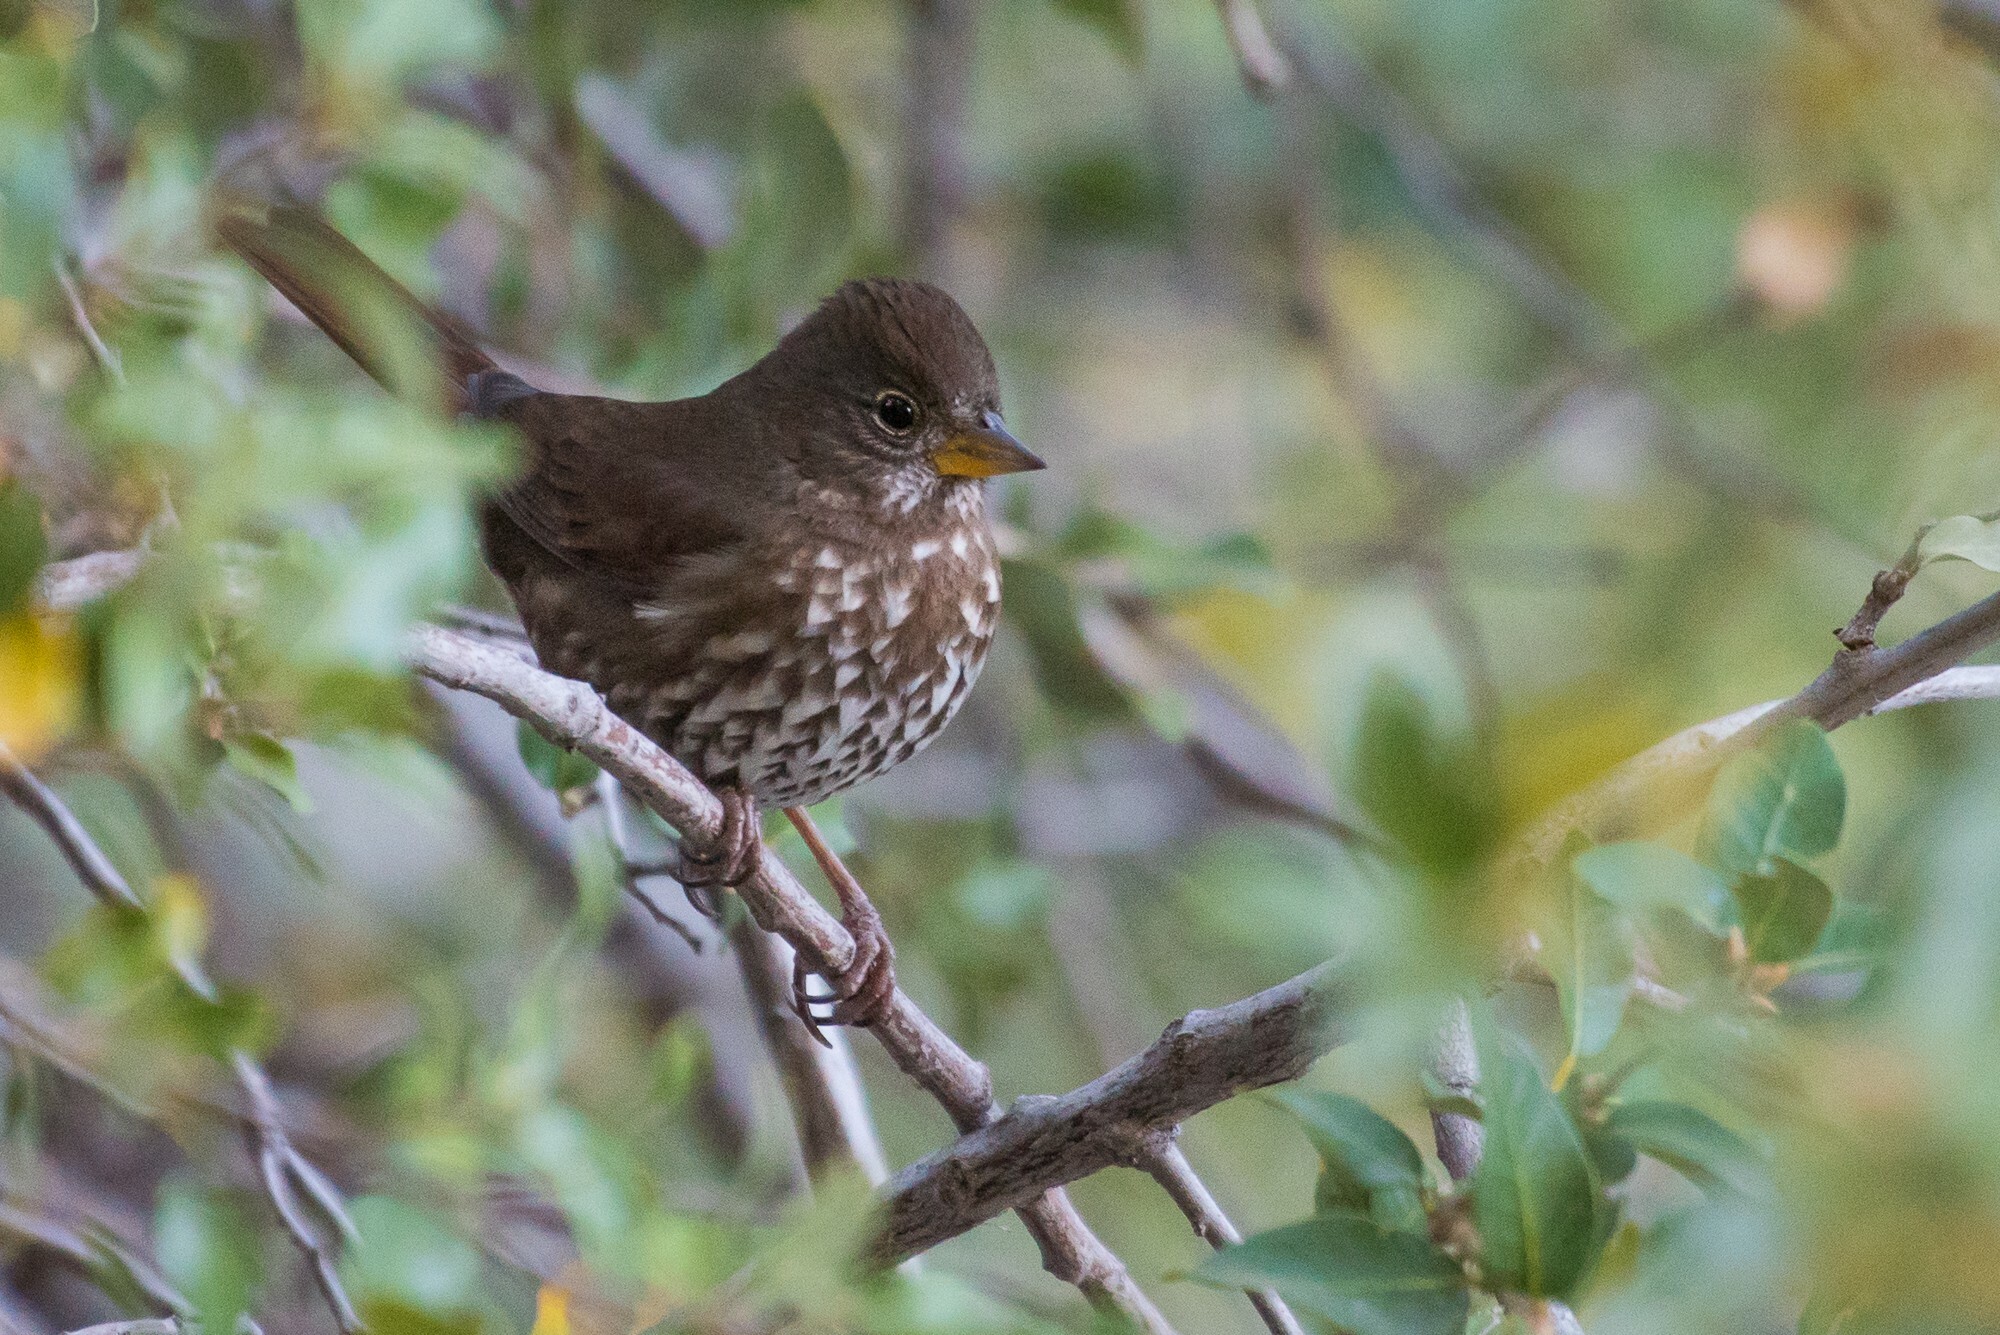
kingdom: Animalia
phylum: Chordata
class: Aves
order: Passeriformes
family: Passerellidae
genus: Passerella
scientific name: Passerella iliaca
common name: Fox sparrow
